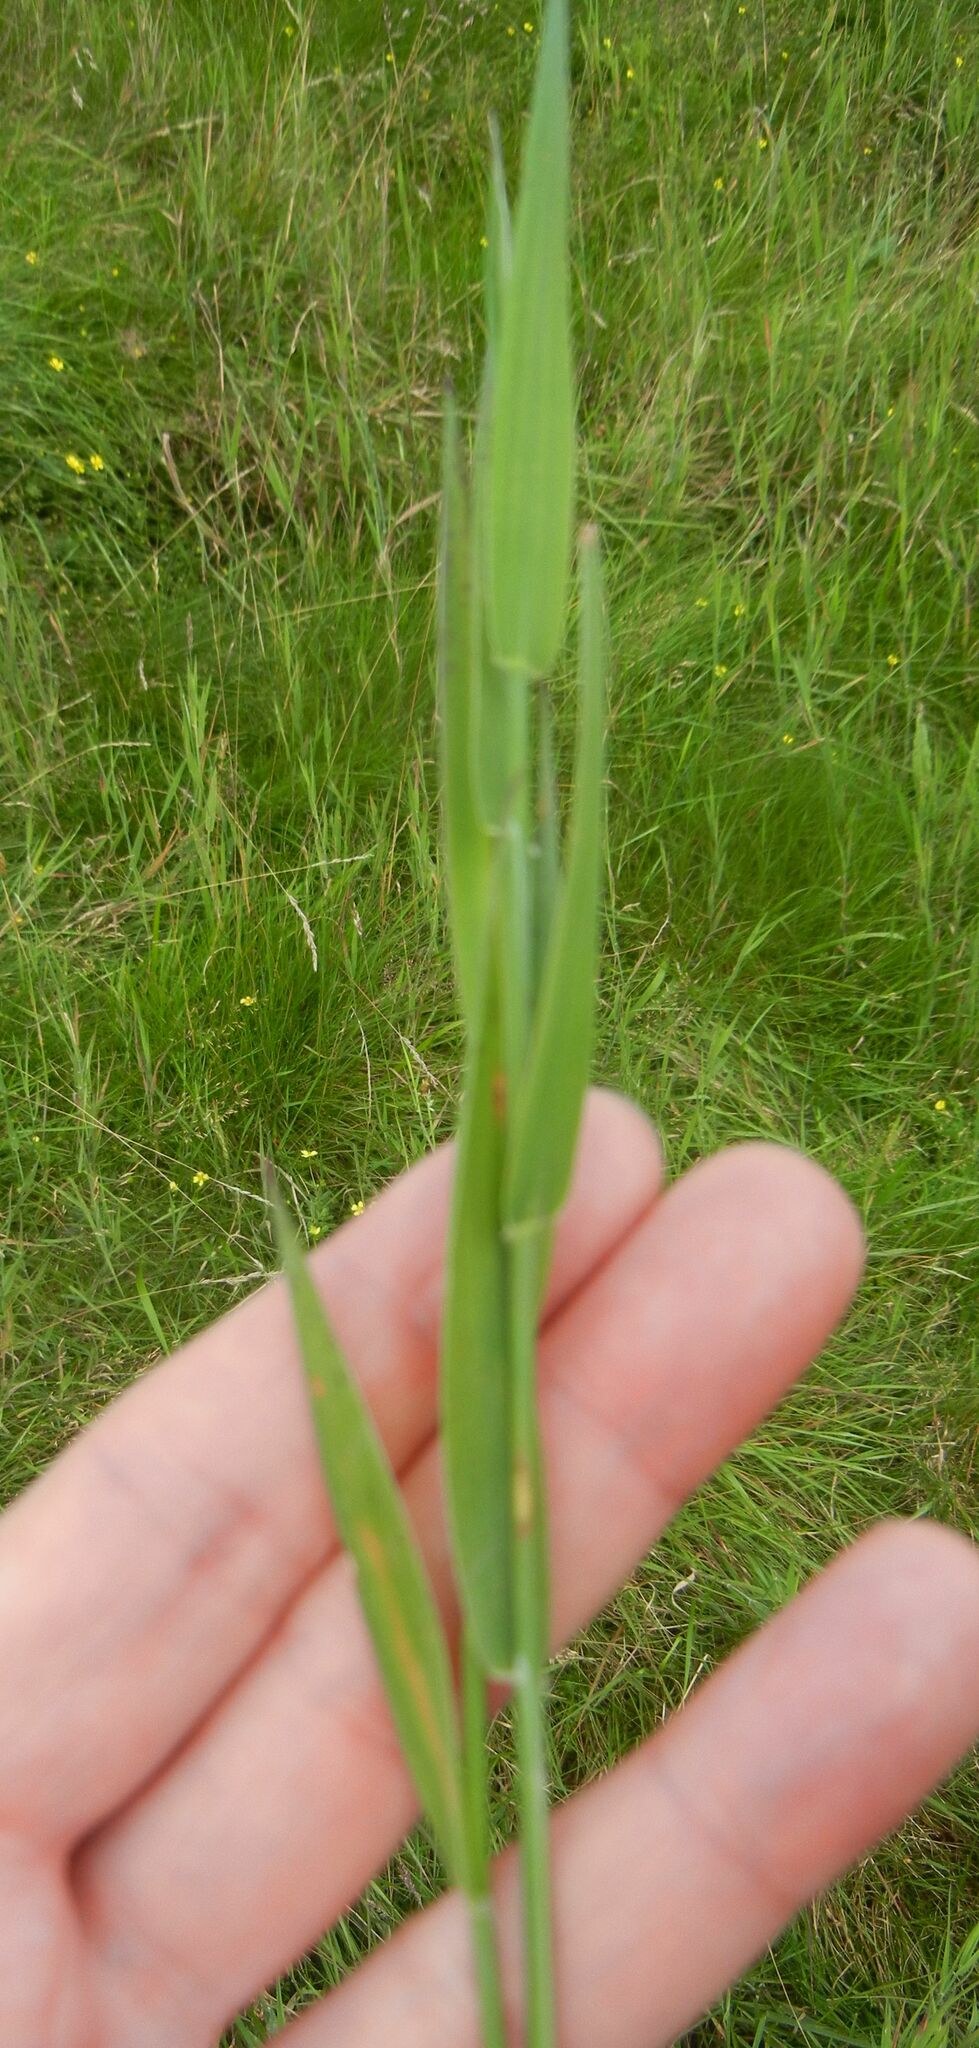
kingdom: Plantae
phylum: Tracheophyta
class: Liliopsida
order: Poales
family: Poaceae
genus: Holcus
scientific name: Holcus mollis
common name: Creeping velvetgrass
